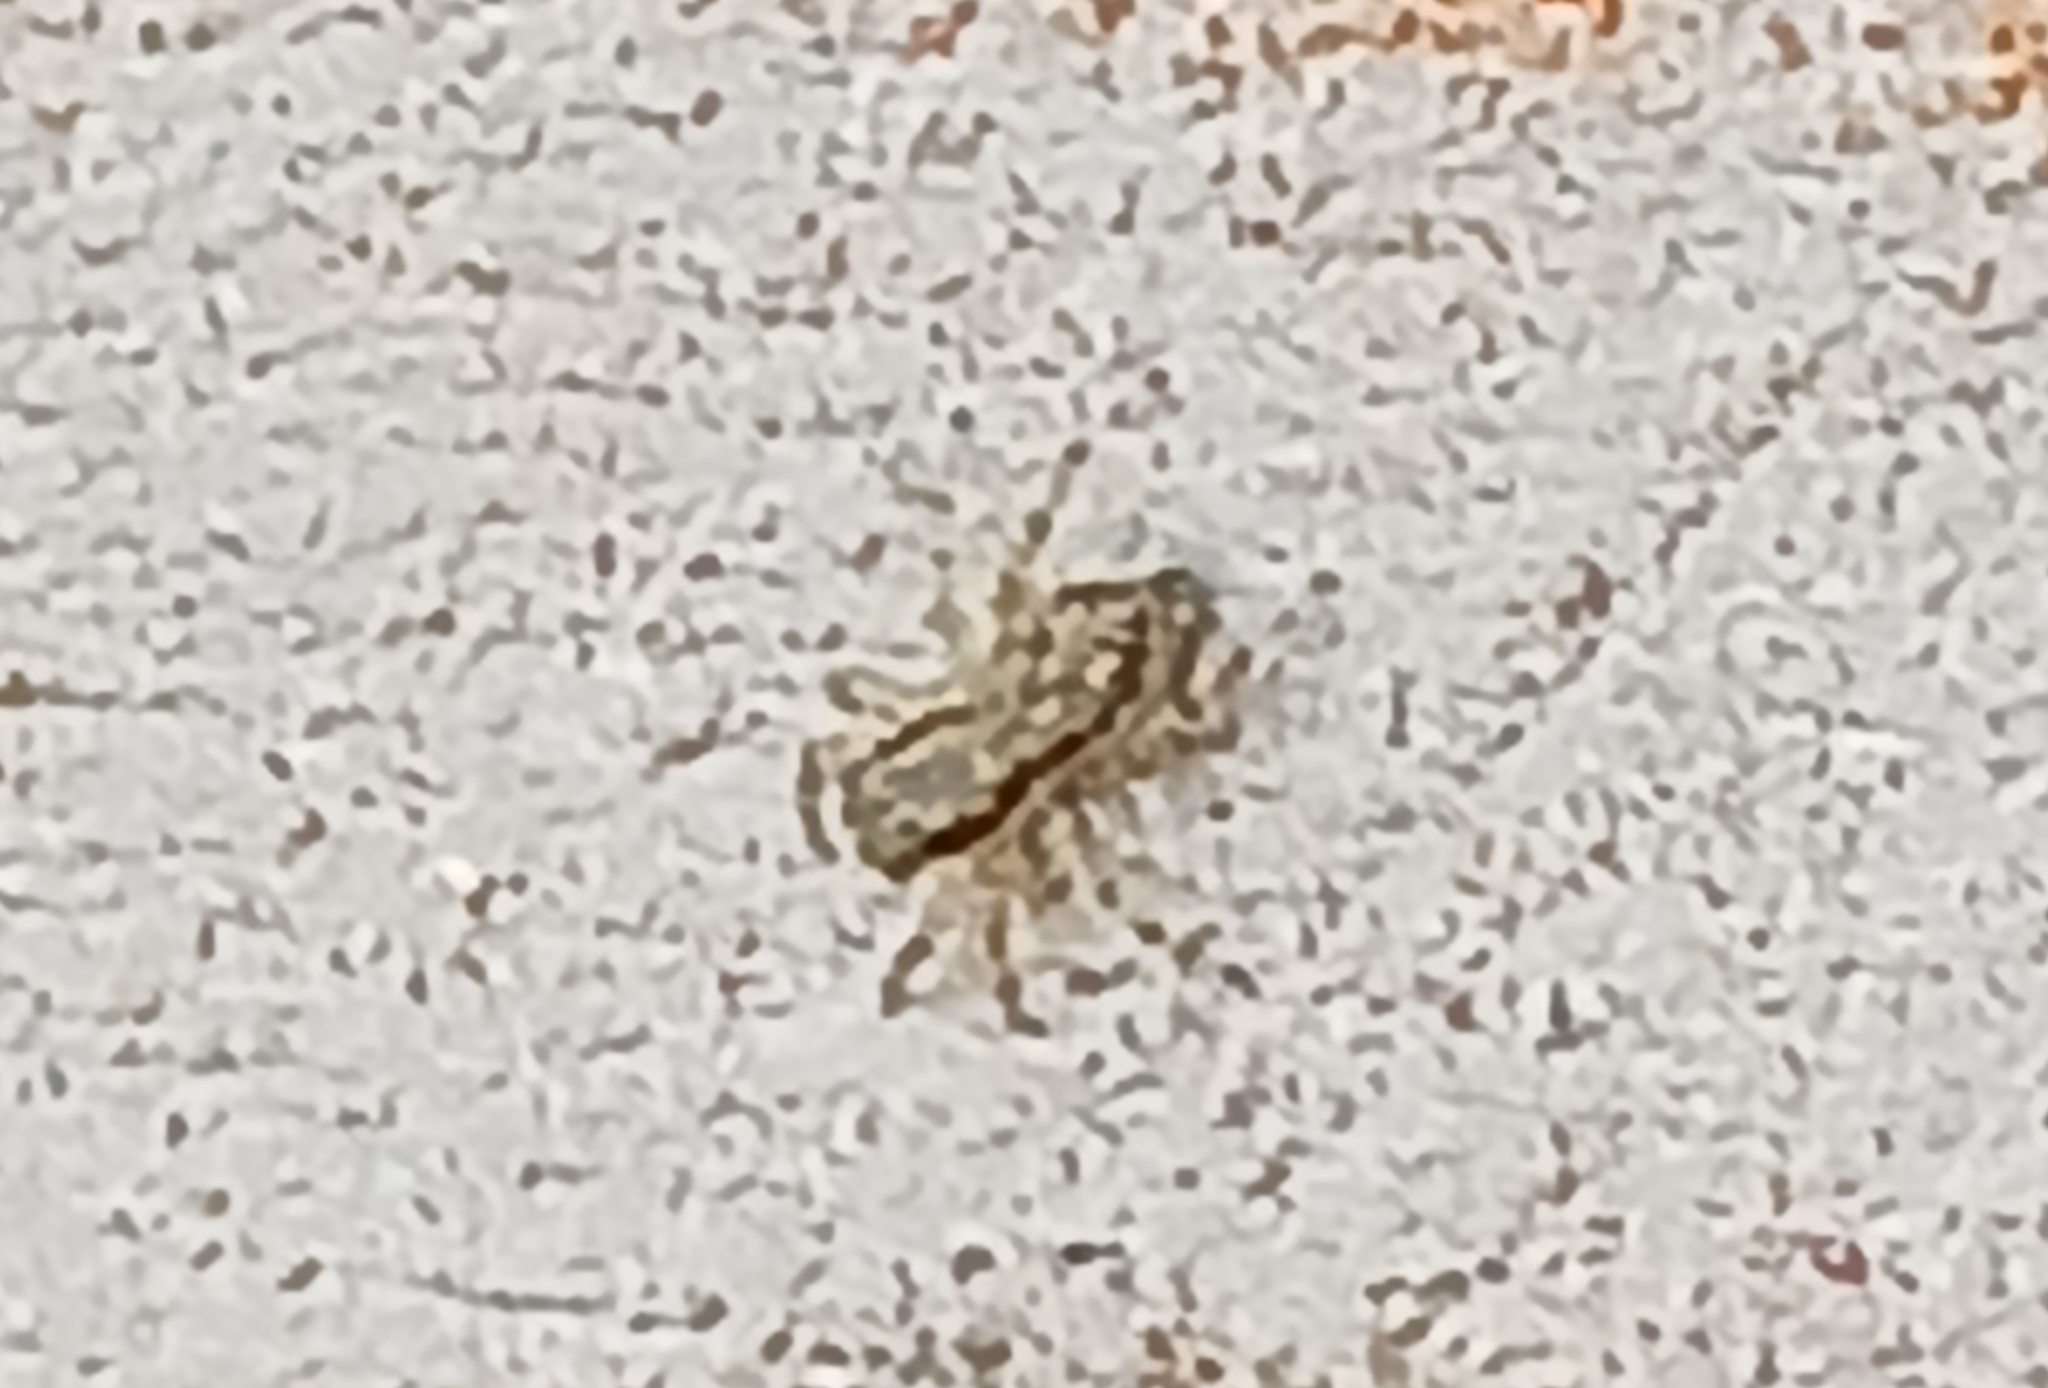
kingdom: Animalia
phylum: Arthropoda
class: Arachnida
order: Araneae
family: Salticidae
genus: Menemerus
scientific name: Menemerus bivittatus
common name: Gray wall jumper
